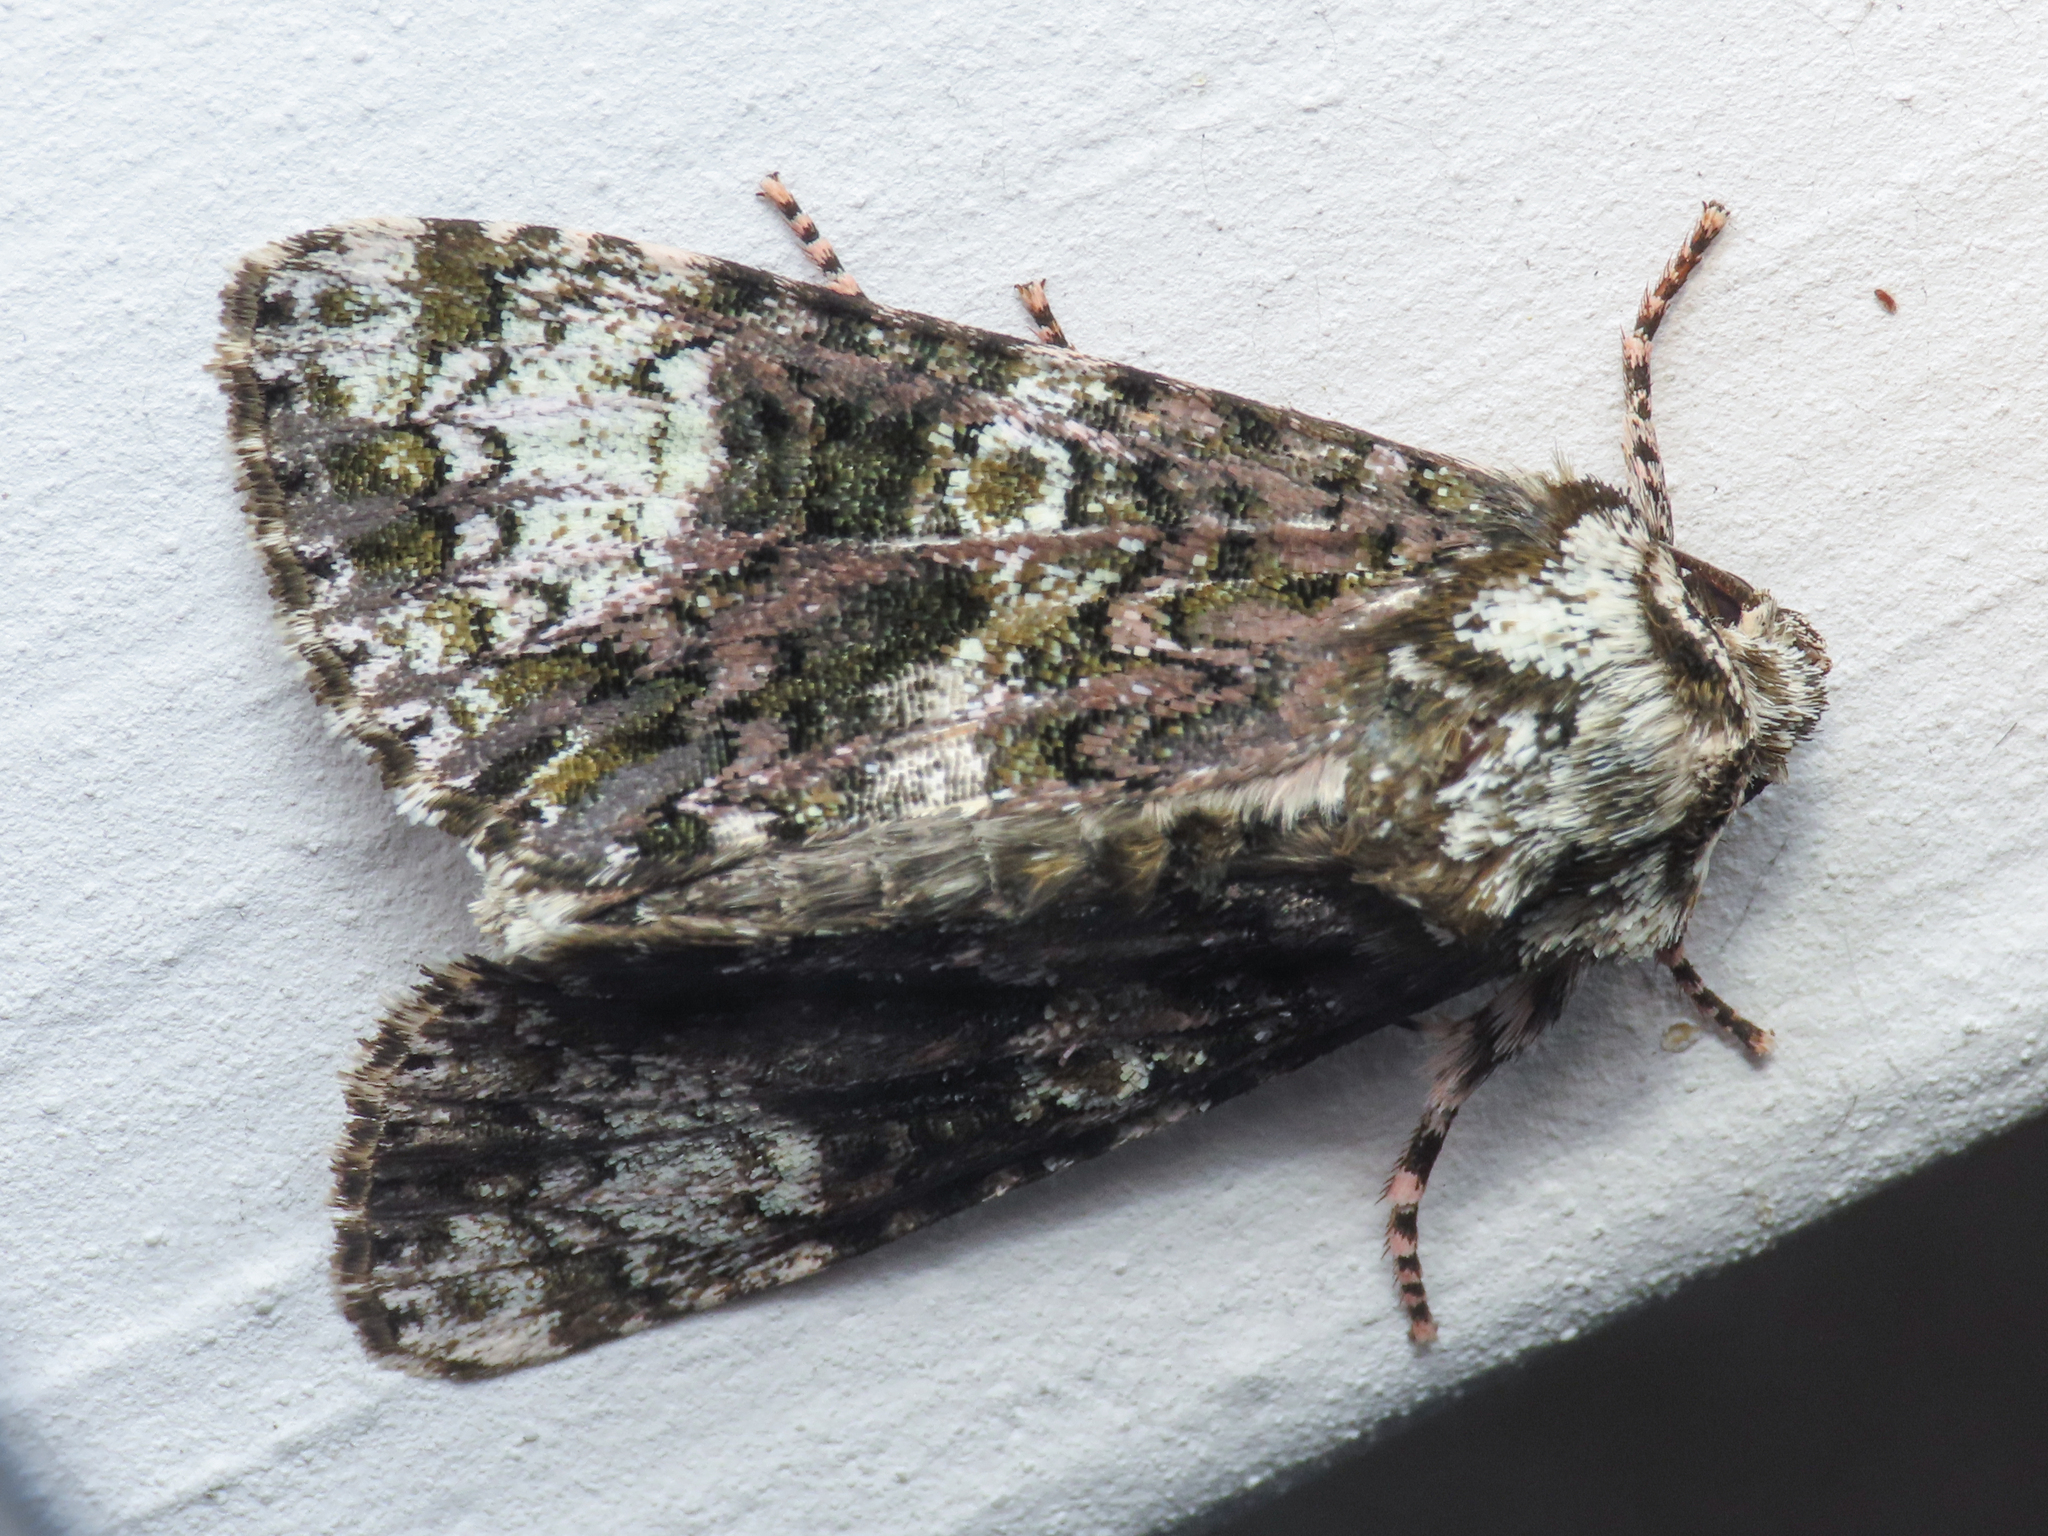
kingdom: Animalia
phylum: Arthropoda
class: Insecta
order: Lepidoptera
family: Noctuidae
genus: Craniophora
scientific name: Craniophora ligustri
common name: Coronet
